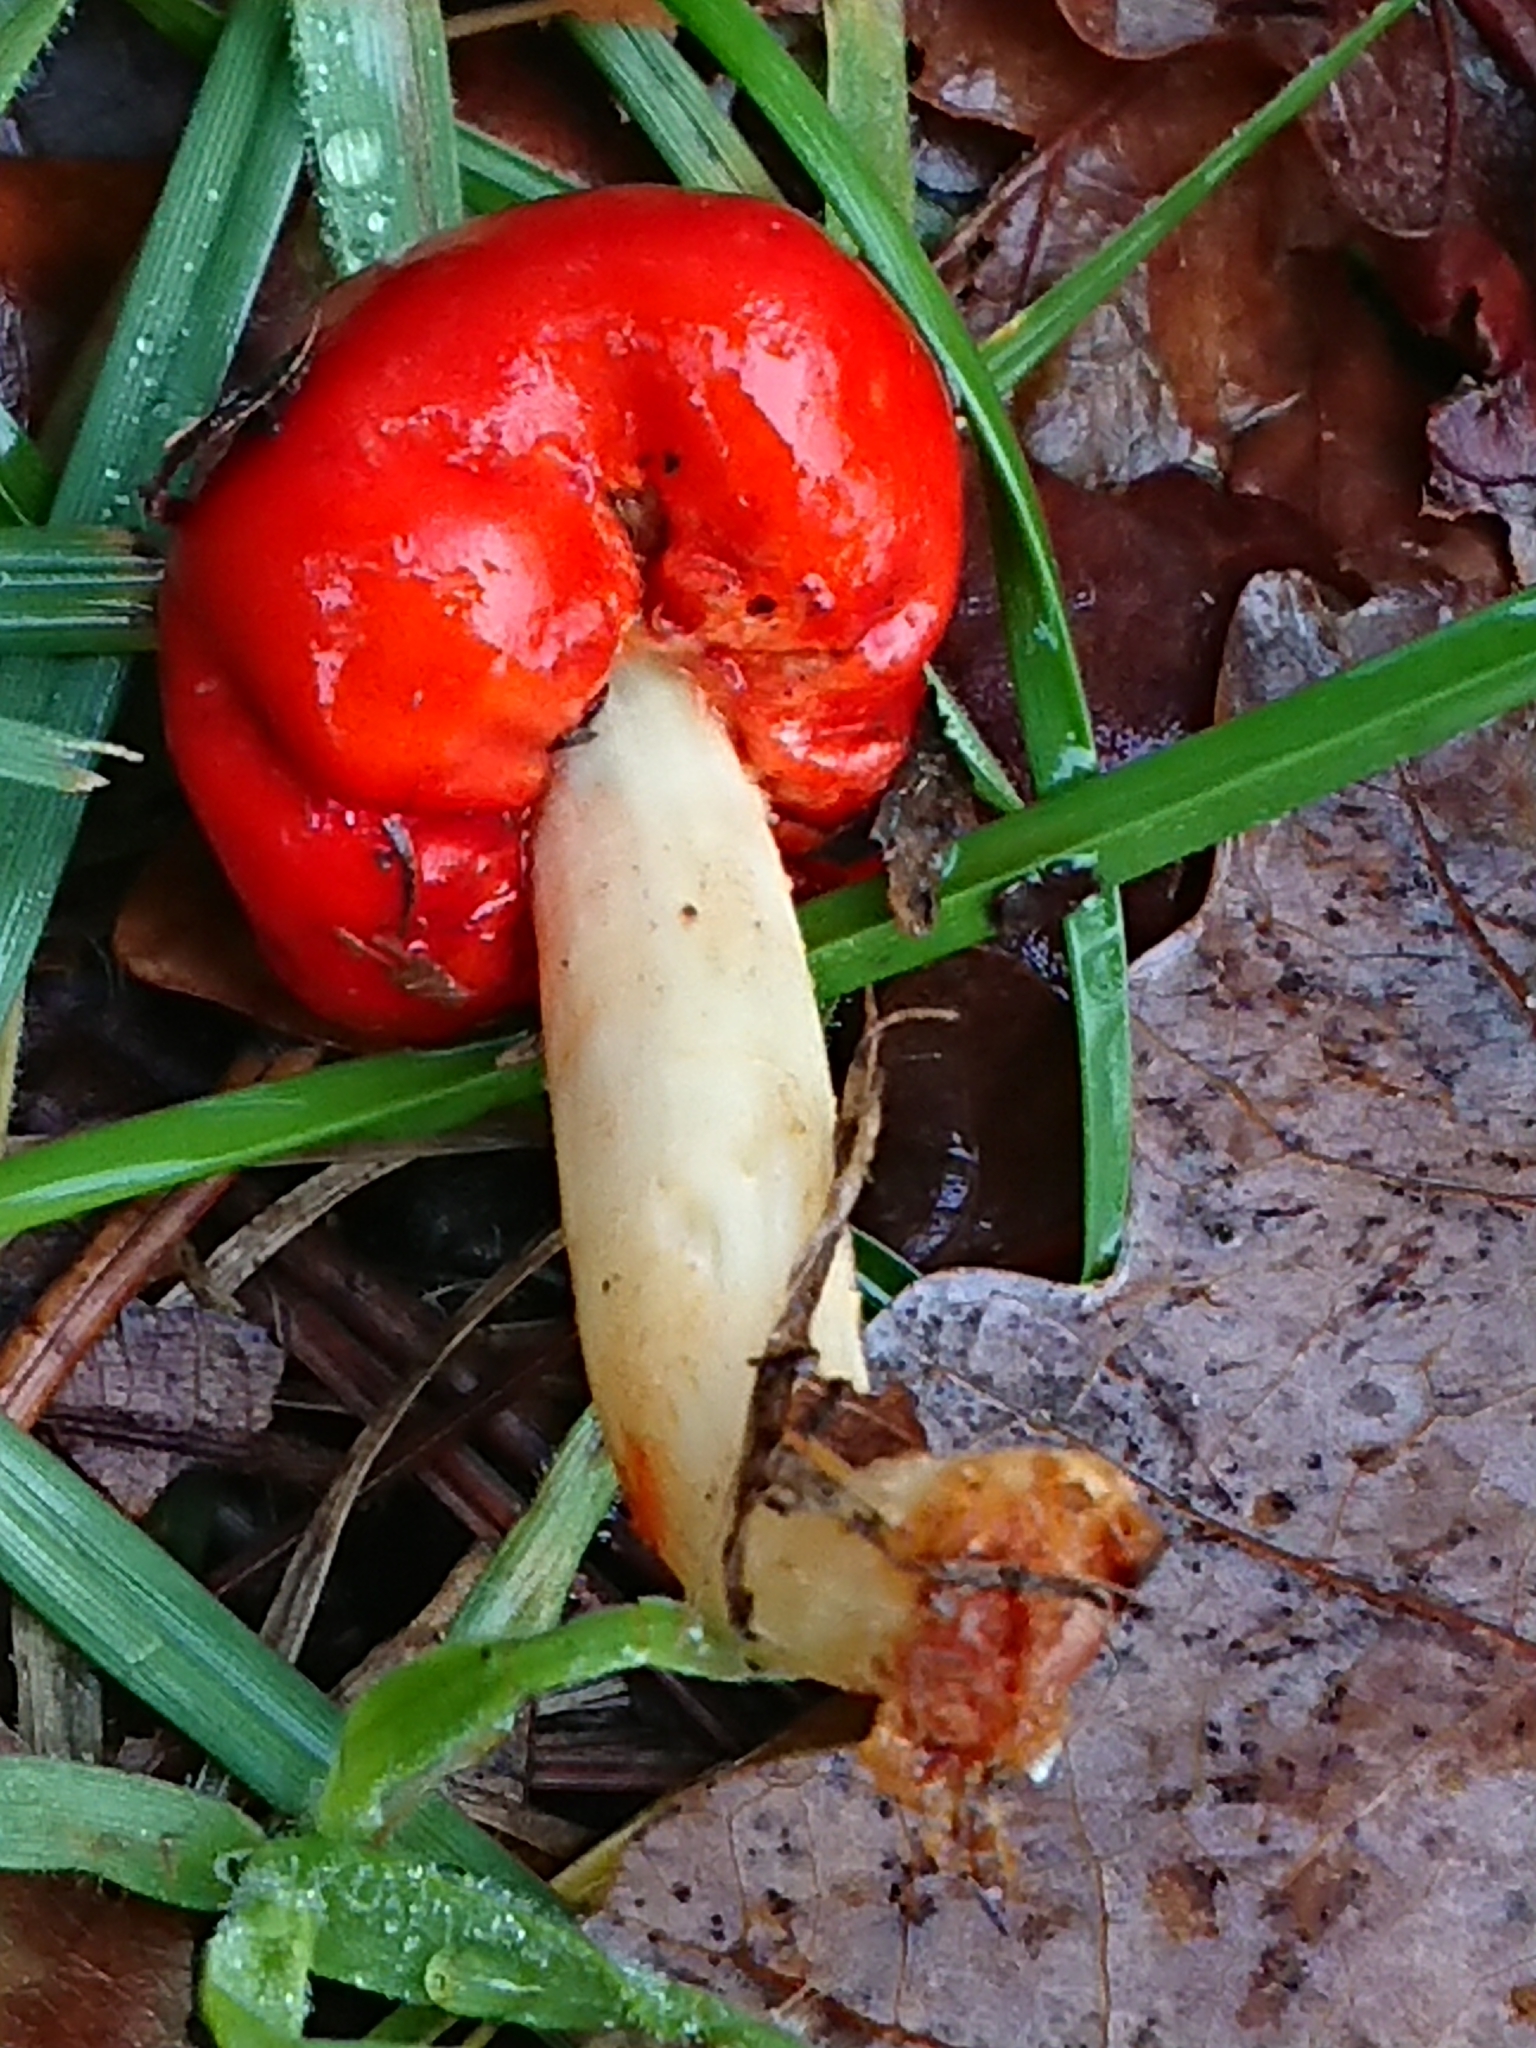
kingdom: Fungi
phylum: Basidiomycota
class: Agaricomycetes
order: Agaricales
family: Strophariaceae
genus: Leratiomyces
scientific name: Leratiomyces erythrocephalus
